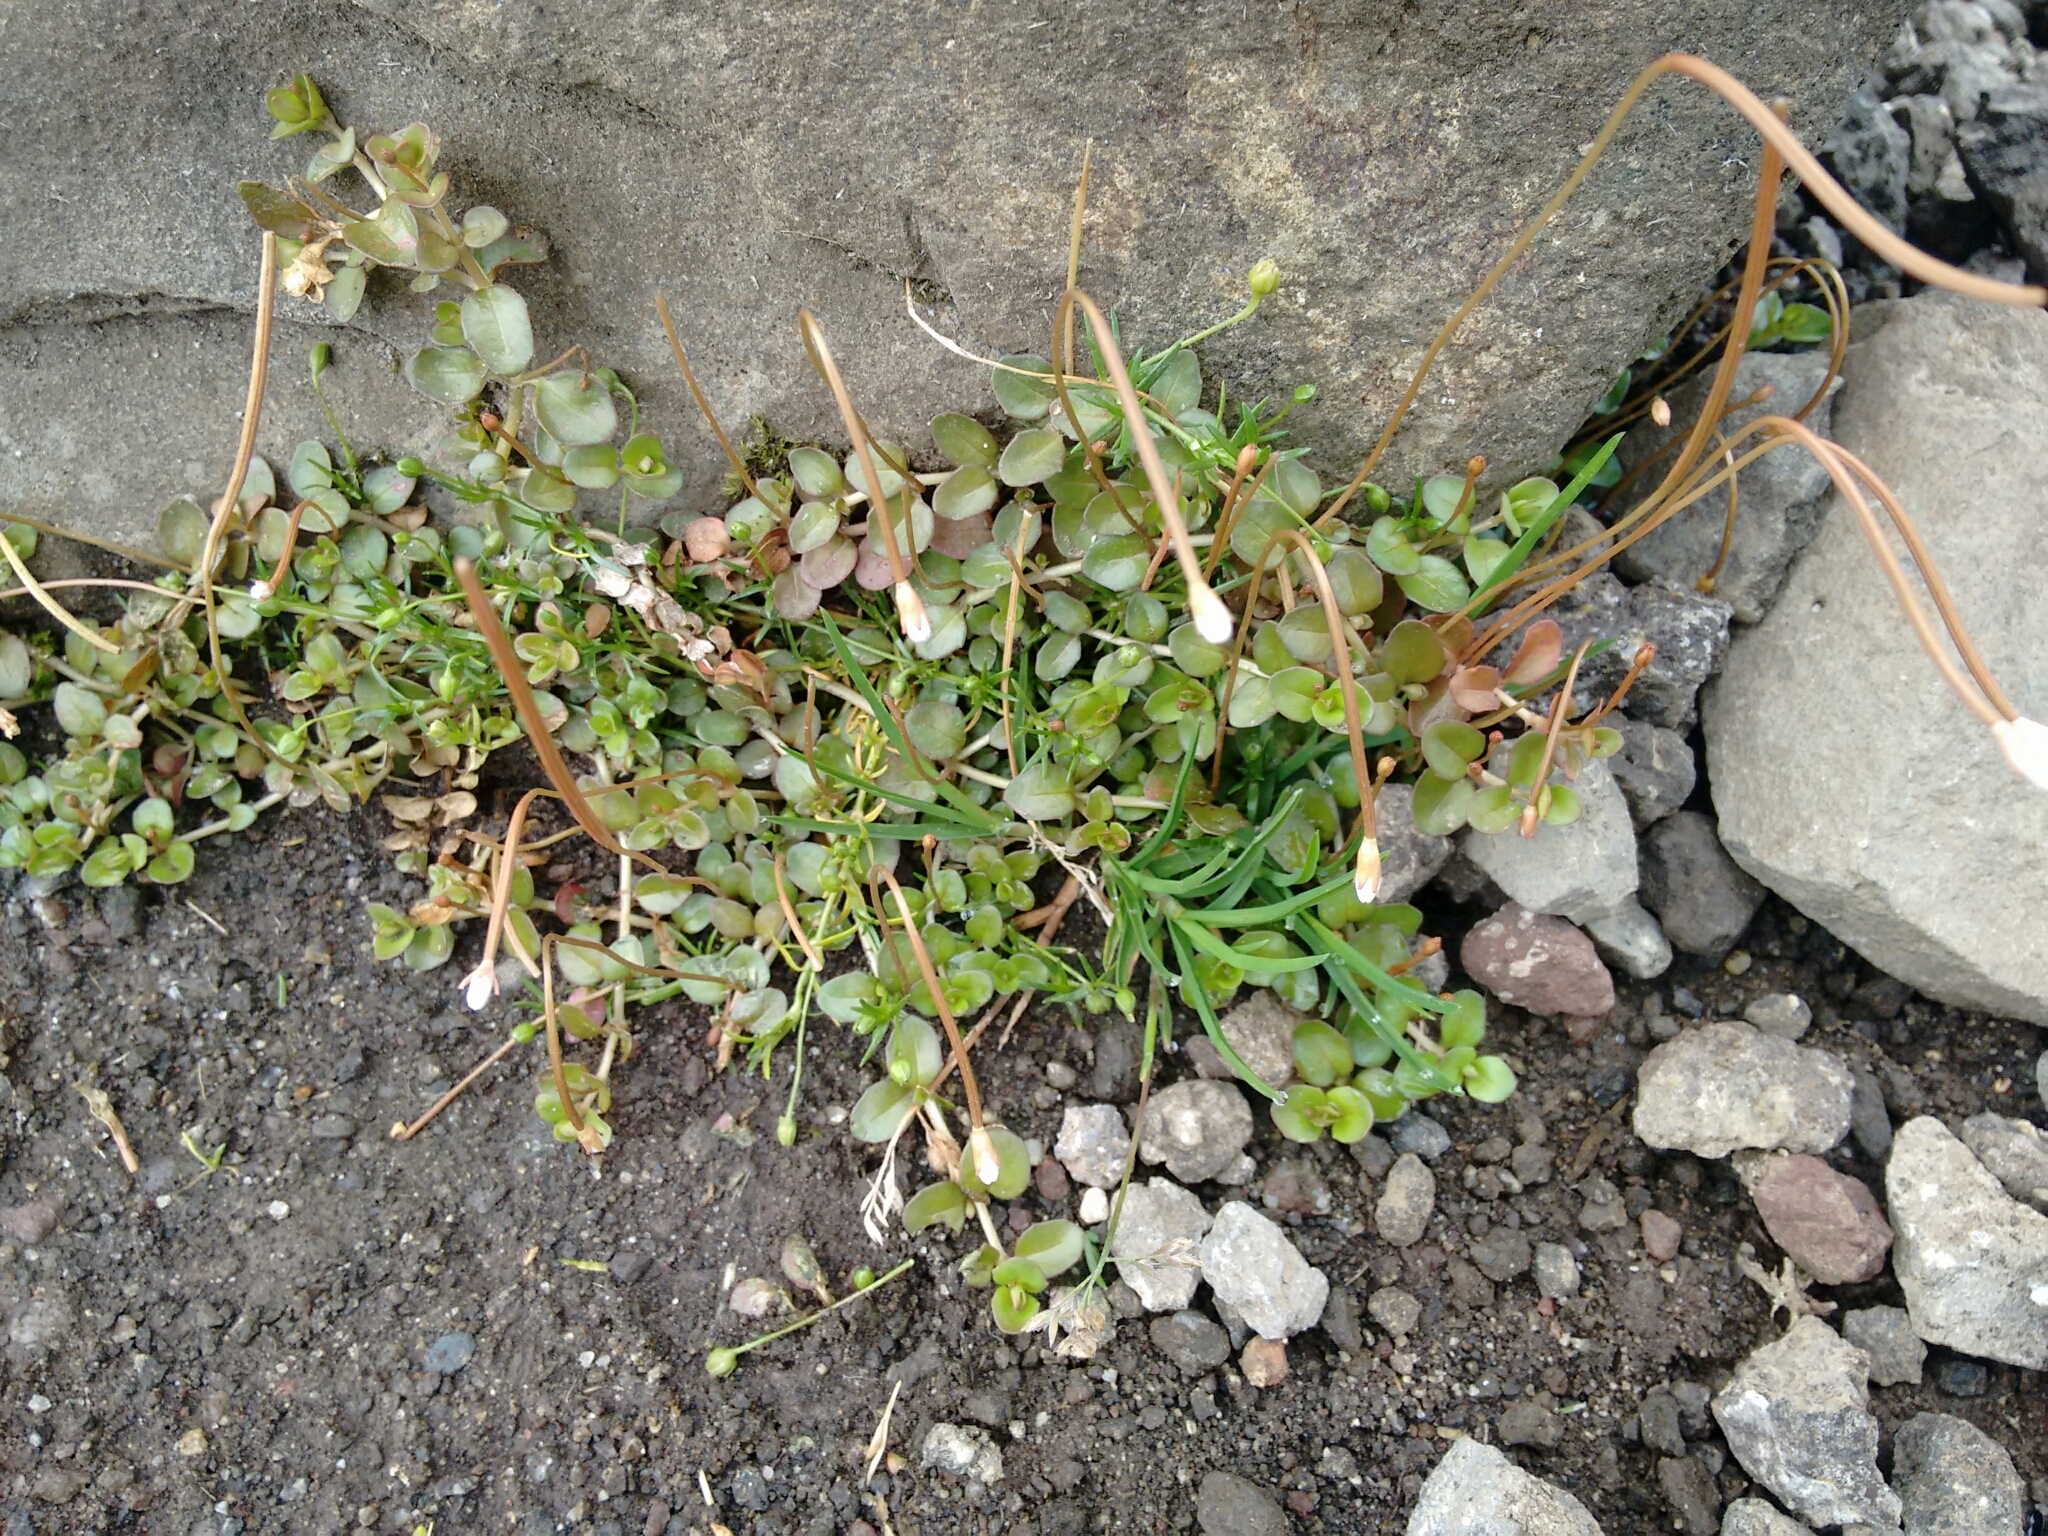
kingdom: Plantae
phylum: Tracheophyta
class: Magnoliopsida
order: Myrtales
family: Onagraceae
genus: Epilobium
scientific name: Epilobium brunnescens
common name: New zealand willowherb
